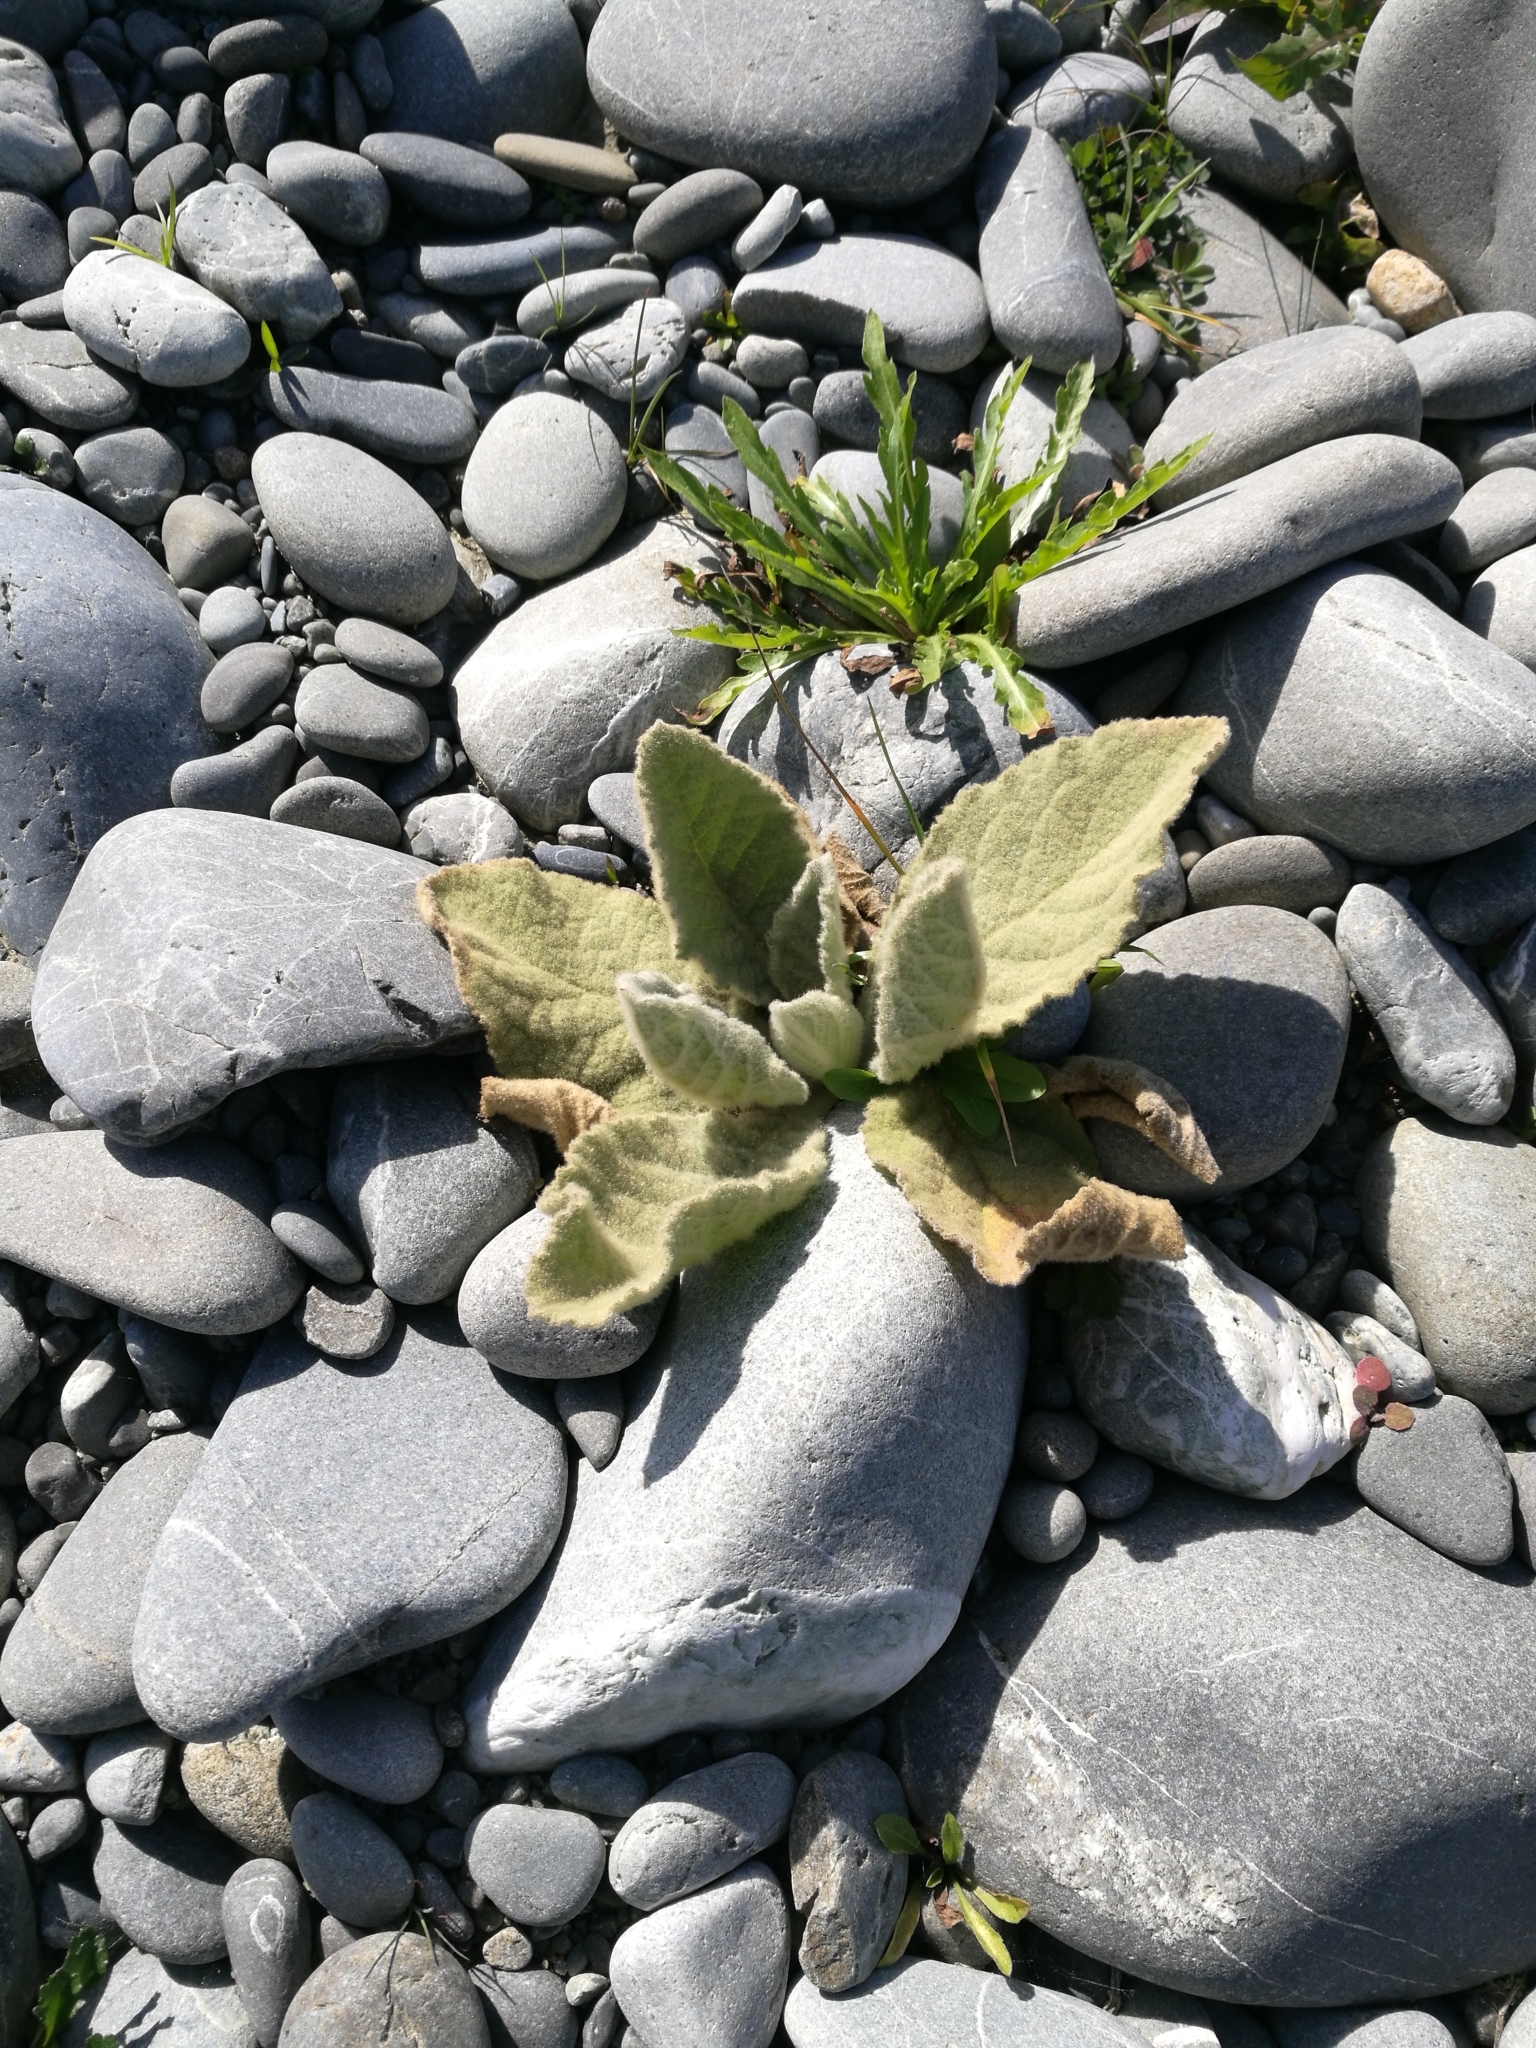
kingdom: Plantae
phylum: Tracheophyta
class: Magnoliopsida
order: Lamiales
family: Scrophulariaceae
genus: Verbascum
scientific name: Verbascum thapsus
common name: Common mullein
